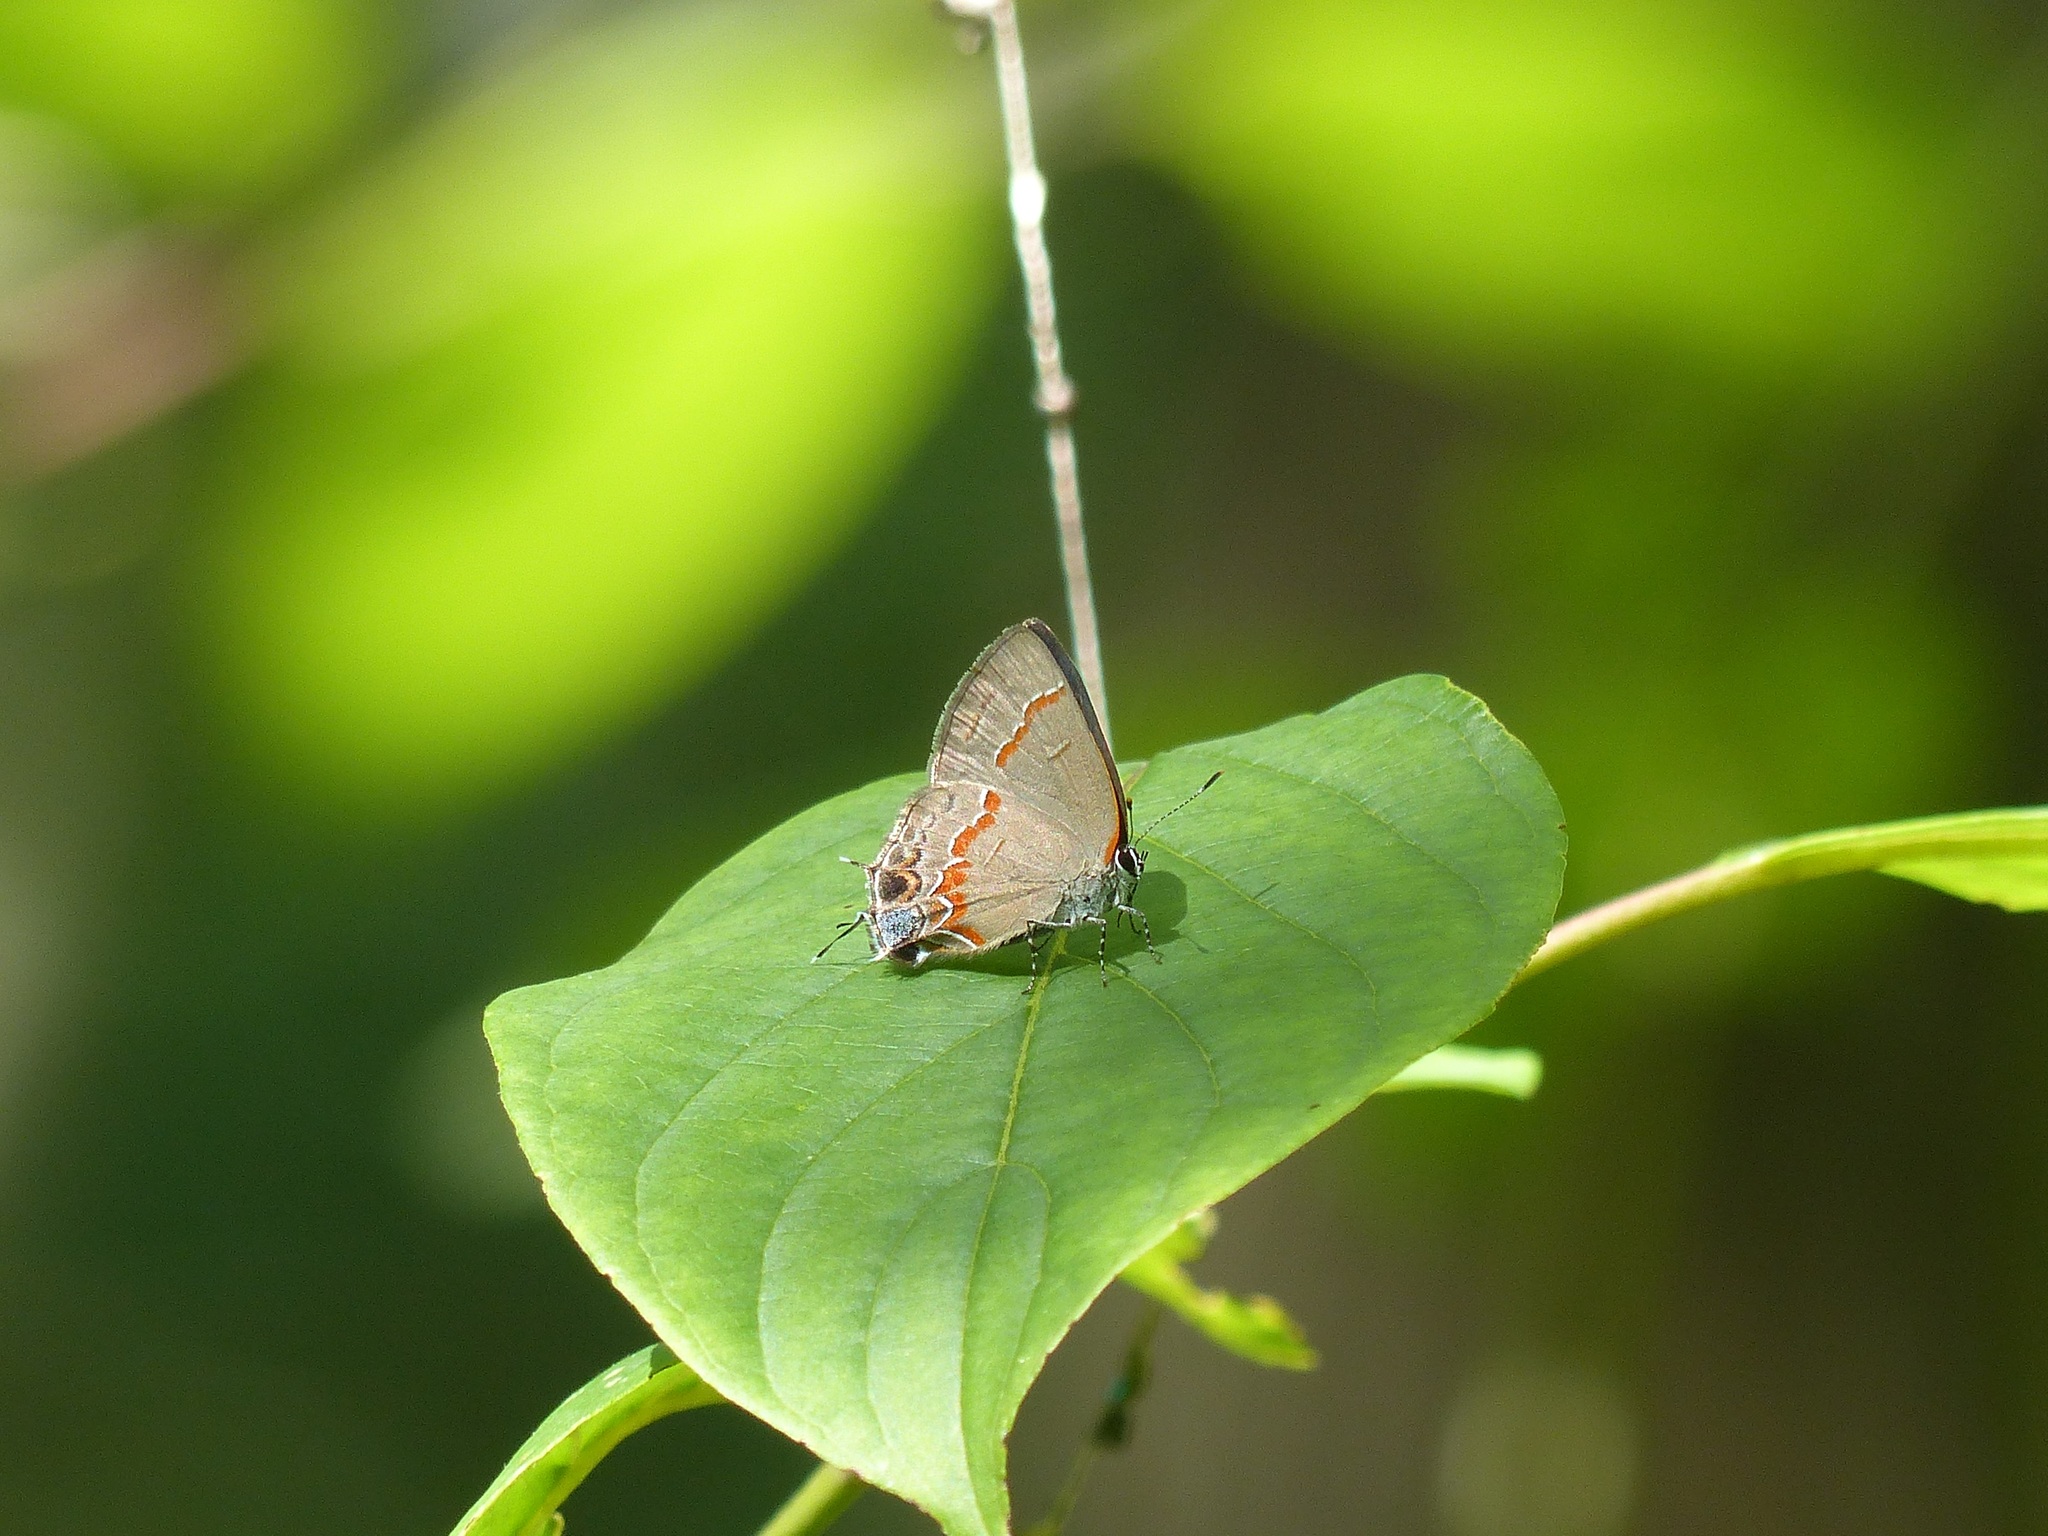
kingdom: Animalia
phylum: Arthropoda
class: Insecta
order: Lepidoptera
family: Lycaenidae
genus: Calycopis
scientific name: Calycopis cecrops
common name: Red-banded hairstreak
